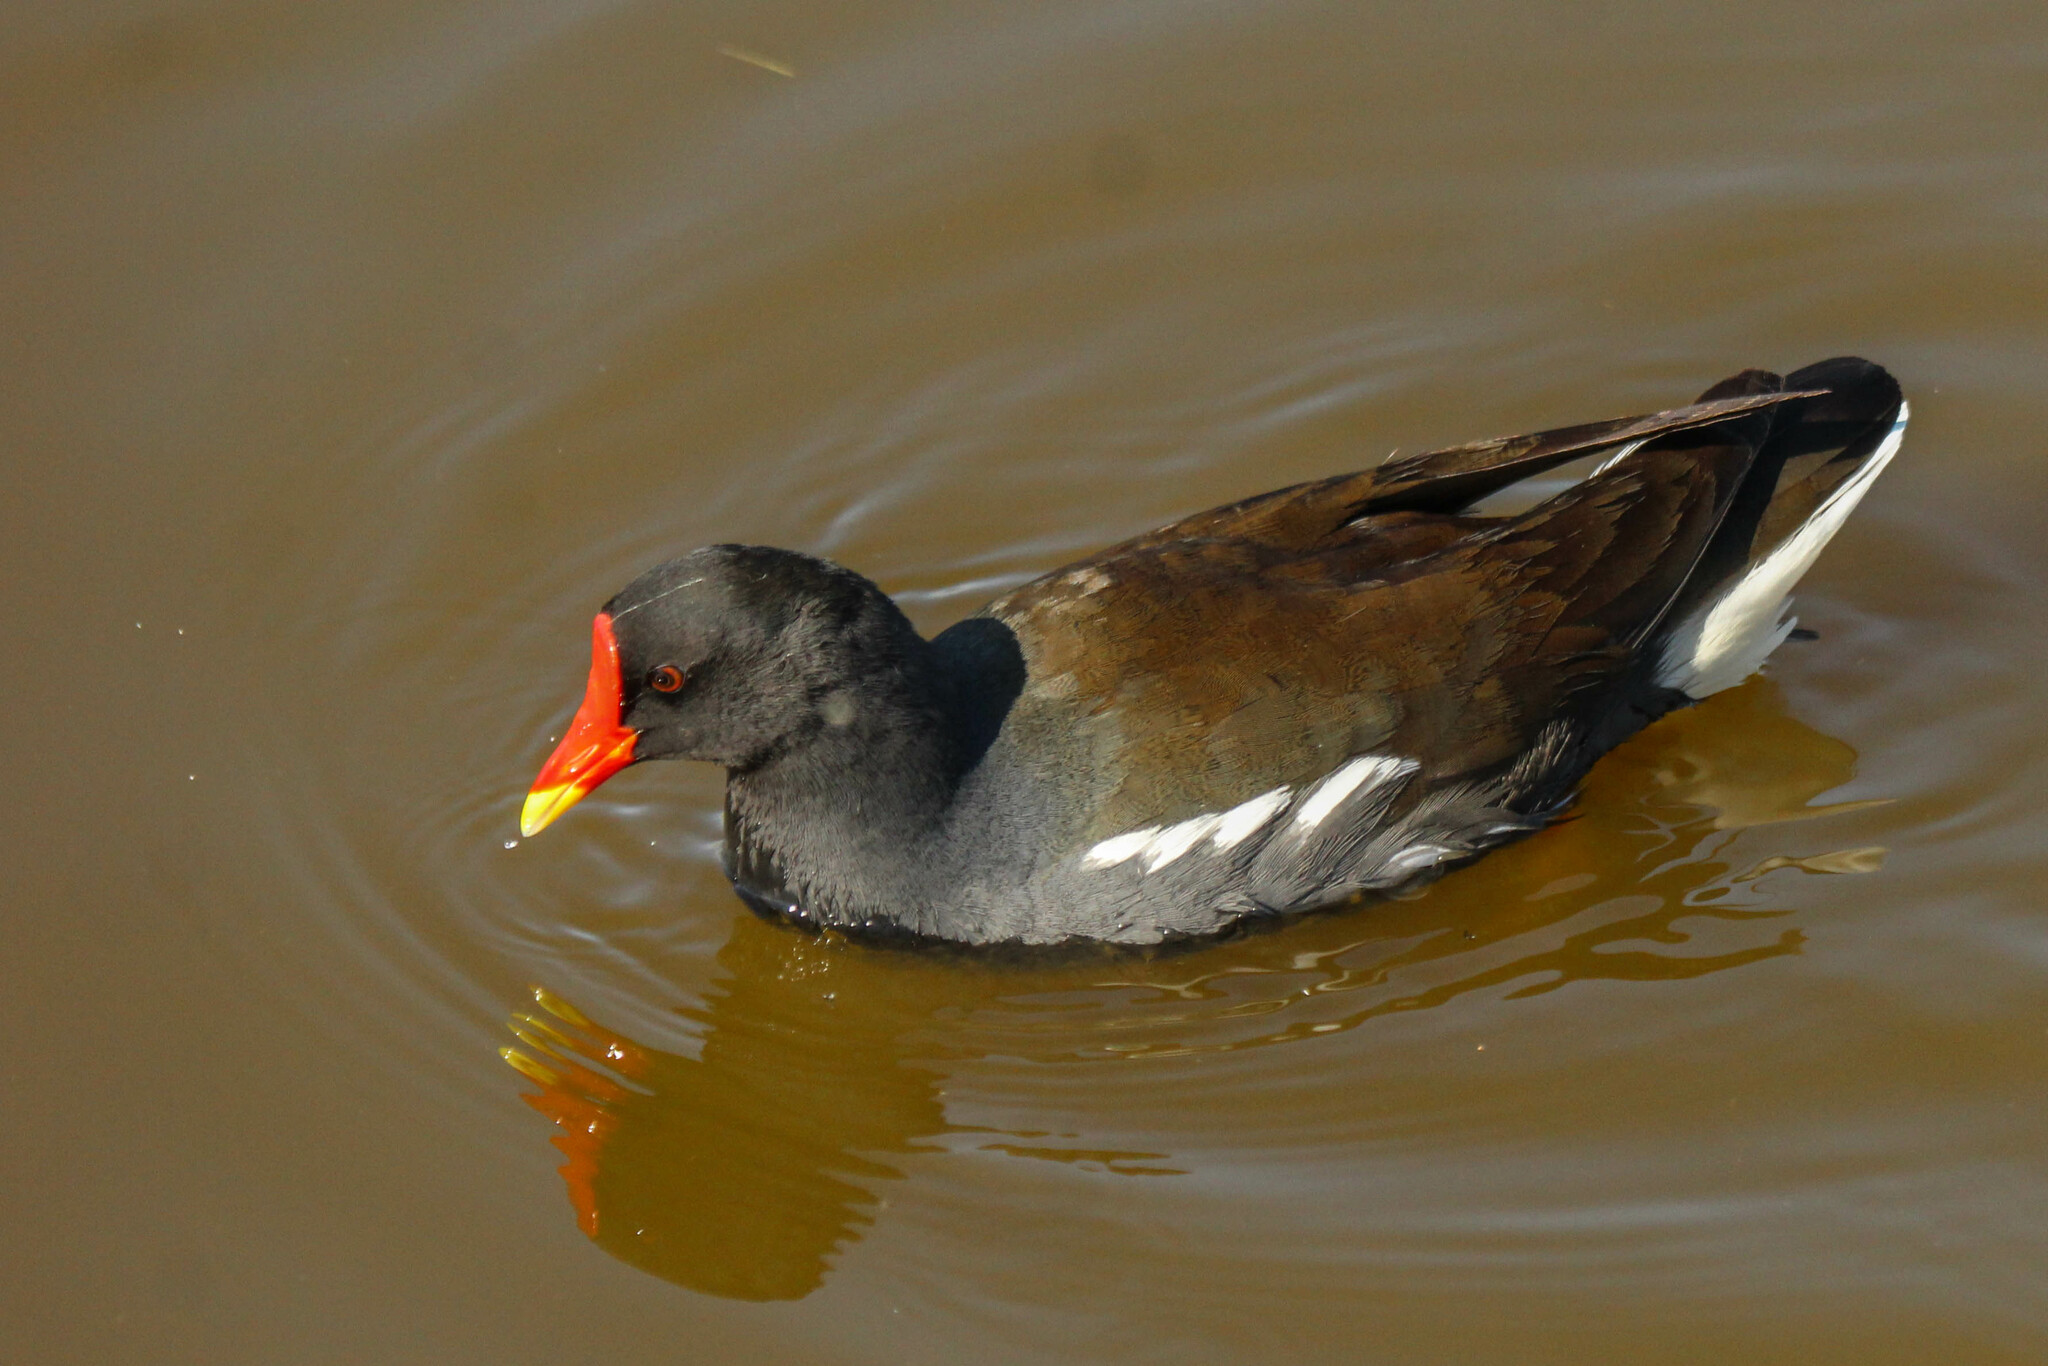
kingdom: Animalia
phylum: Chordata
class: Aves
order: Gruiformes
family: Rallidae
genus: Gallinula
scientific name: Gallinula chloropus
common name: Common moorhen
